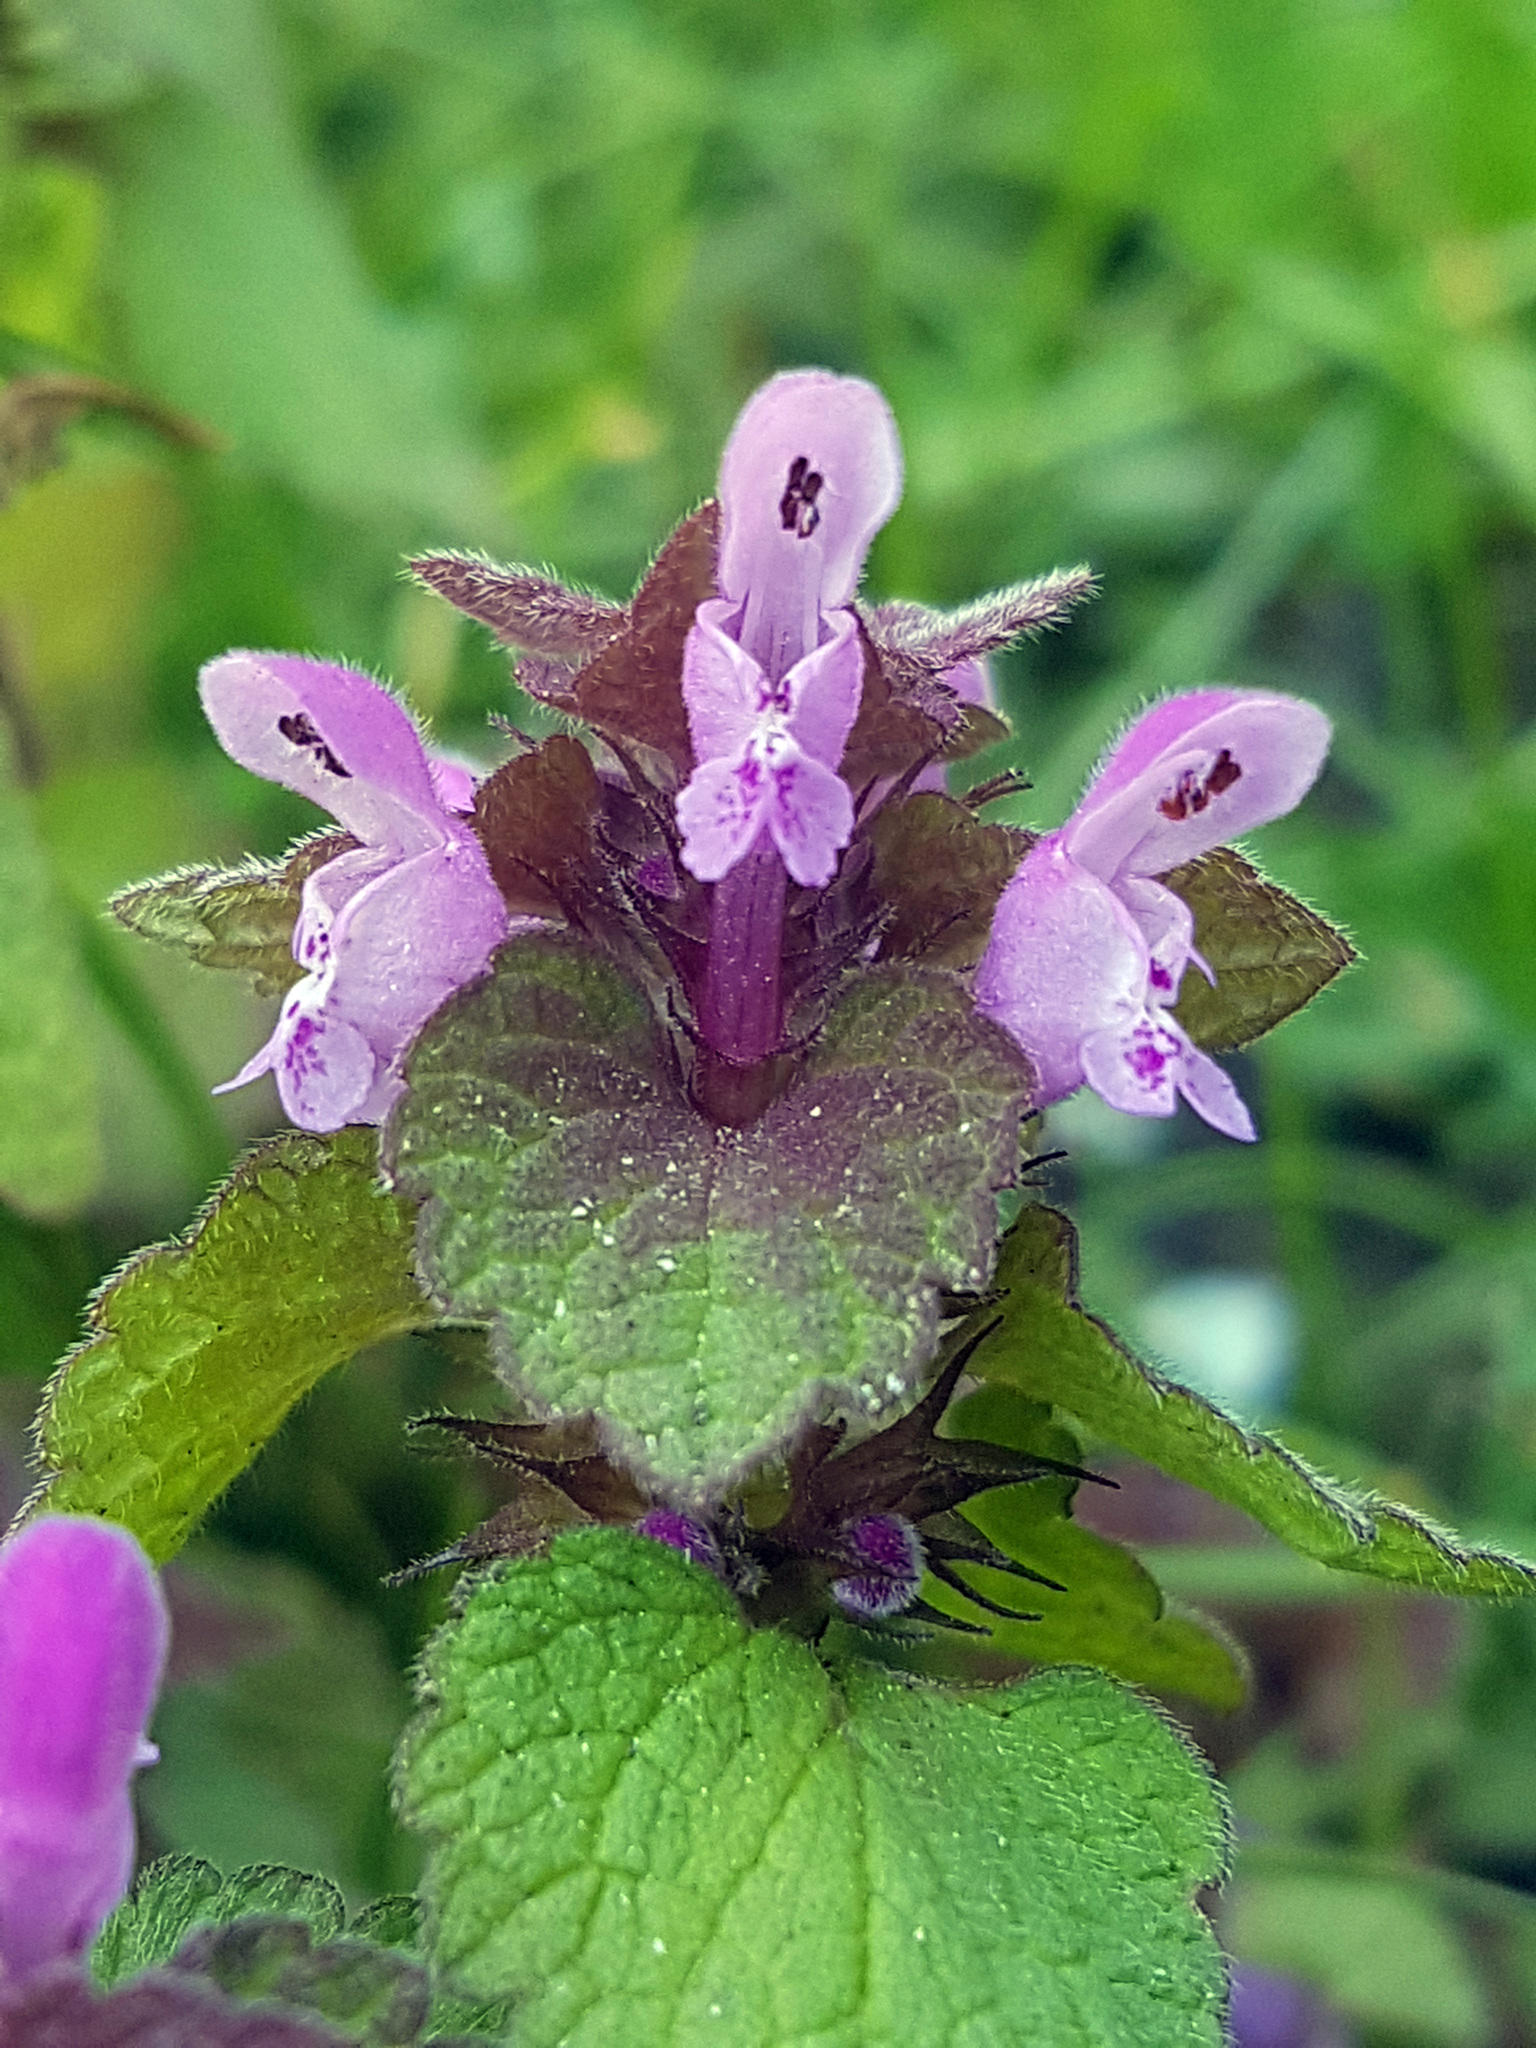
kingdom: Plantae
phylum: Tracheophyta
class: Magnoliopsida
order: Lamiales
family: Lamiaceae
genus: Lamium
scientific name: Lamium purpureum
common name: Red dead-nettle
